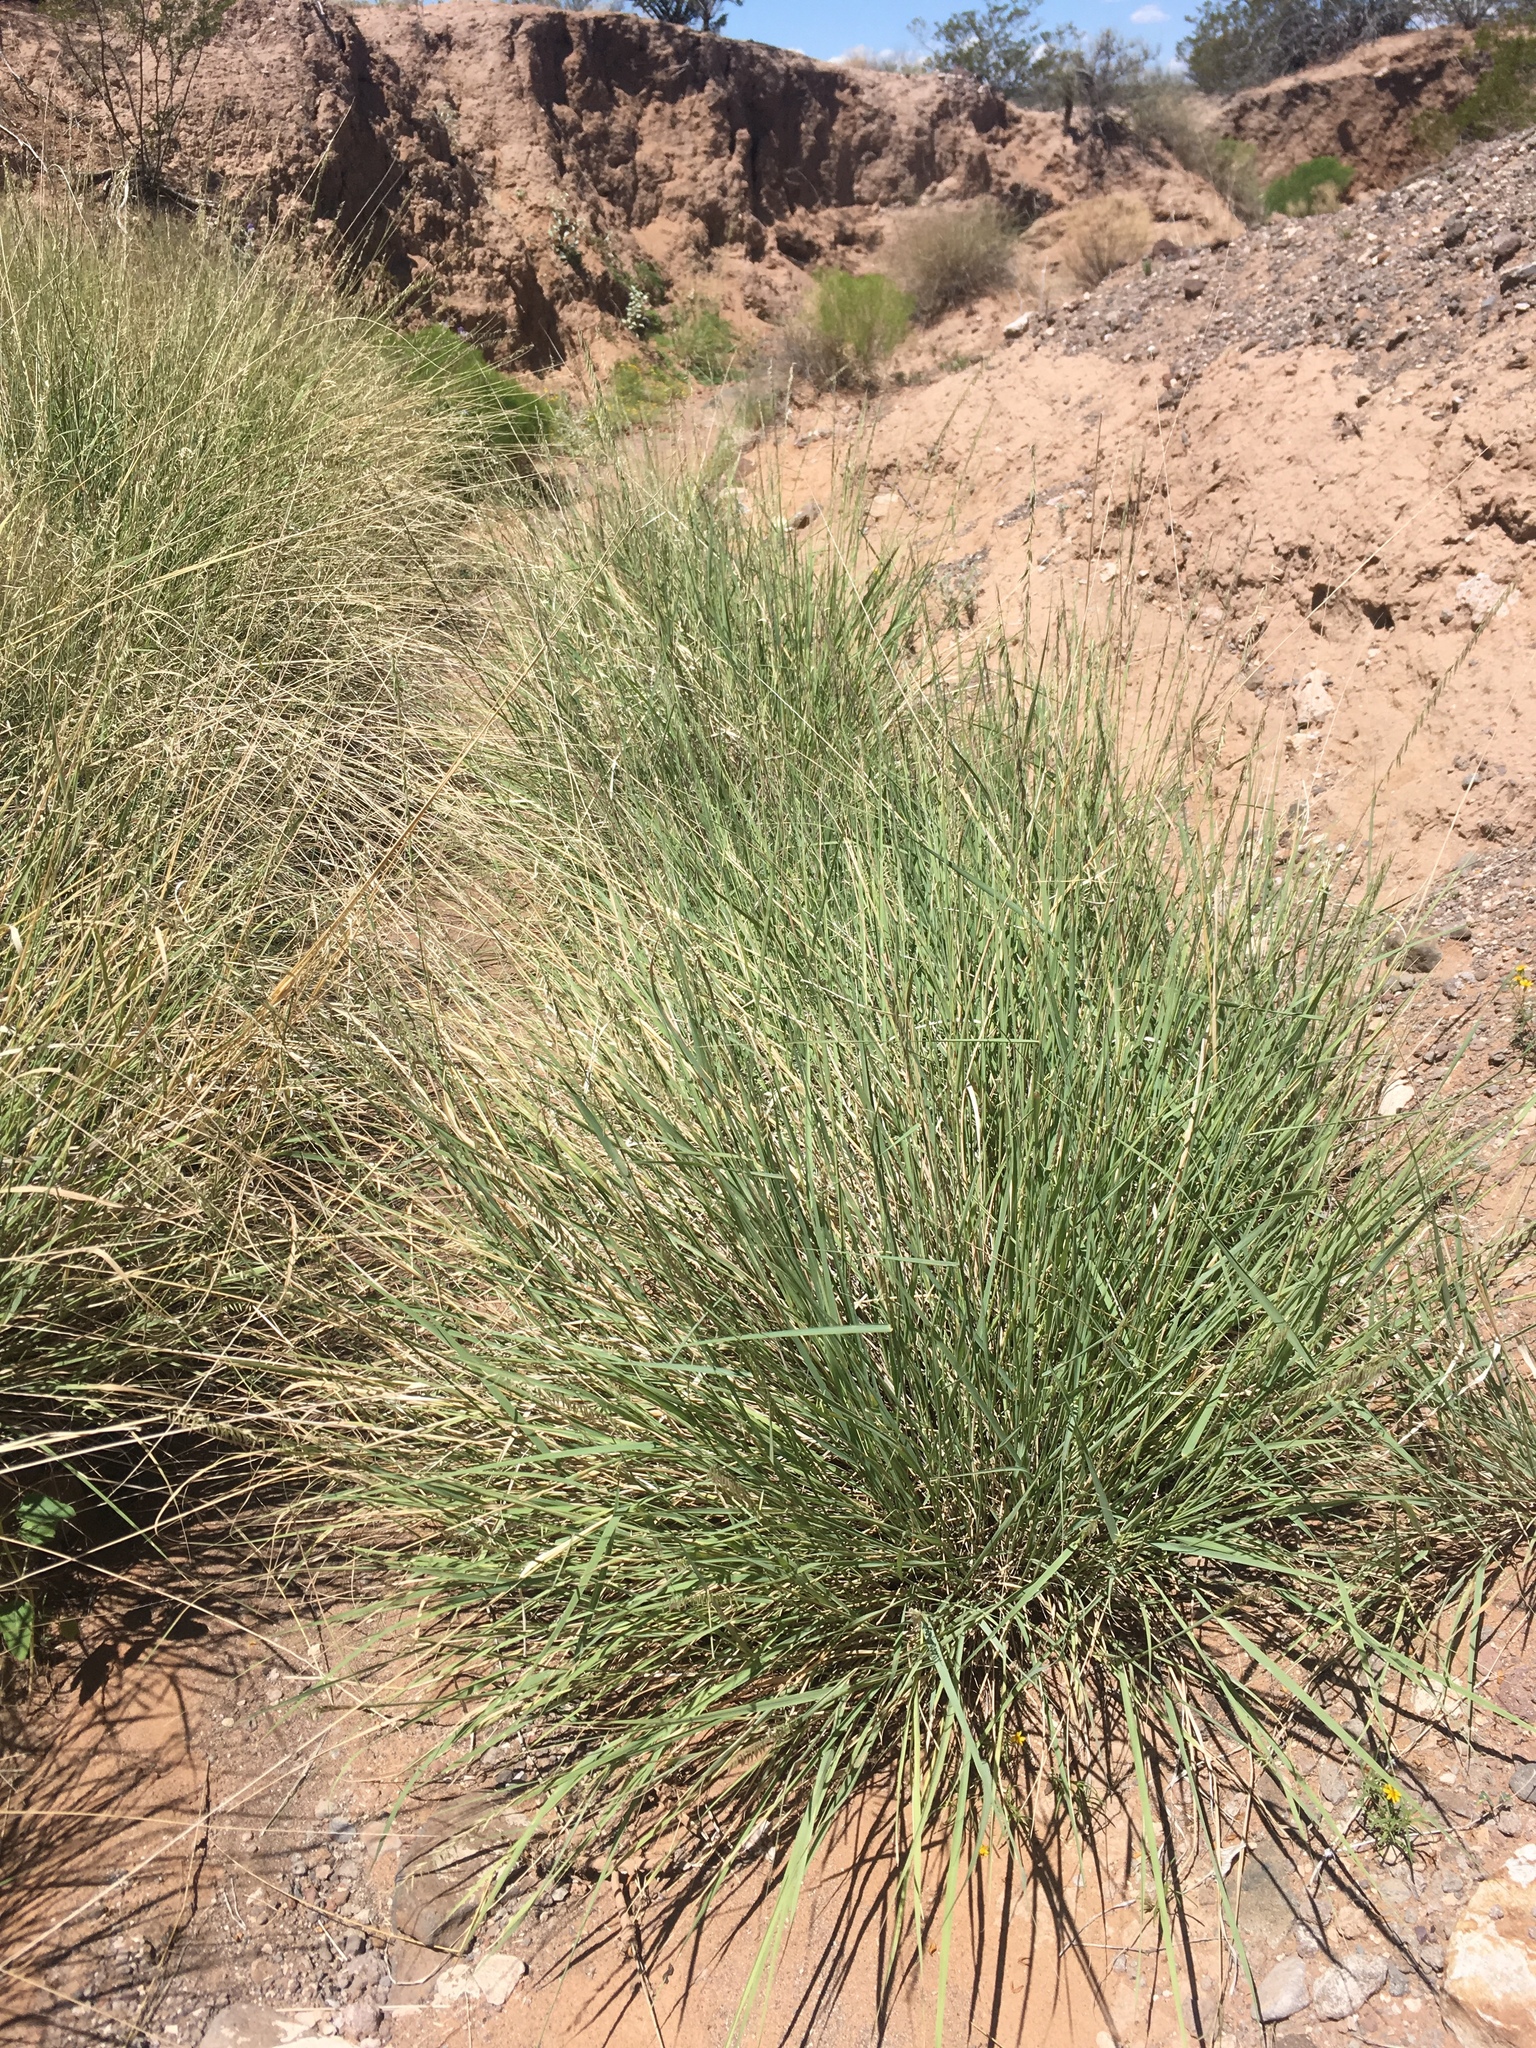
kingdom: Plantae
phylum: Tracheophyta
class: Liliopsida
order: Poales
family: Poaceae
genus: Bouteloua
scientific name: Bouteloua curtipendula
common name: Side-oats grama
